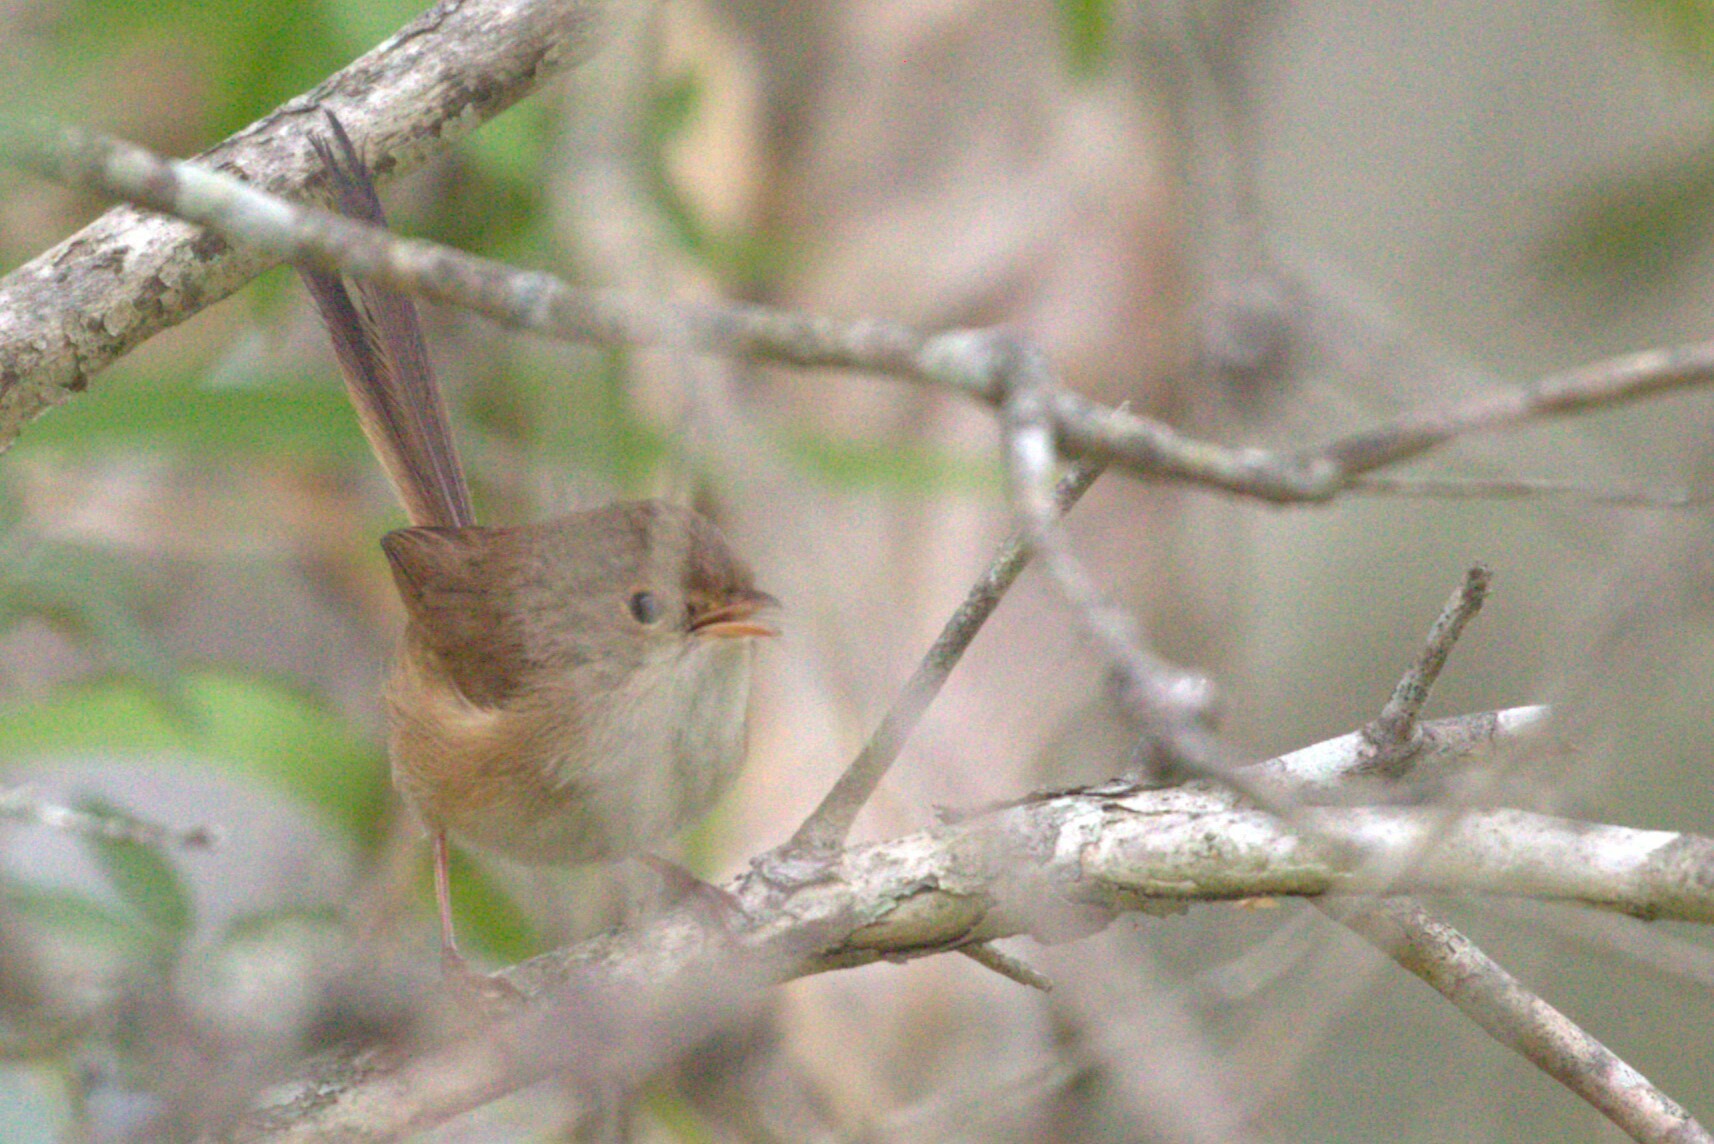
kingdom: Animalia
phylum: Chordata
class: Aves
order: Passeriformes
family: Maluridae
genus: Malurus
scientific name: Malurus melanocephalus
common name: Red-backed fairywren
